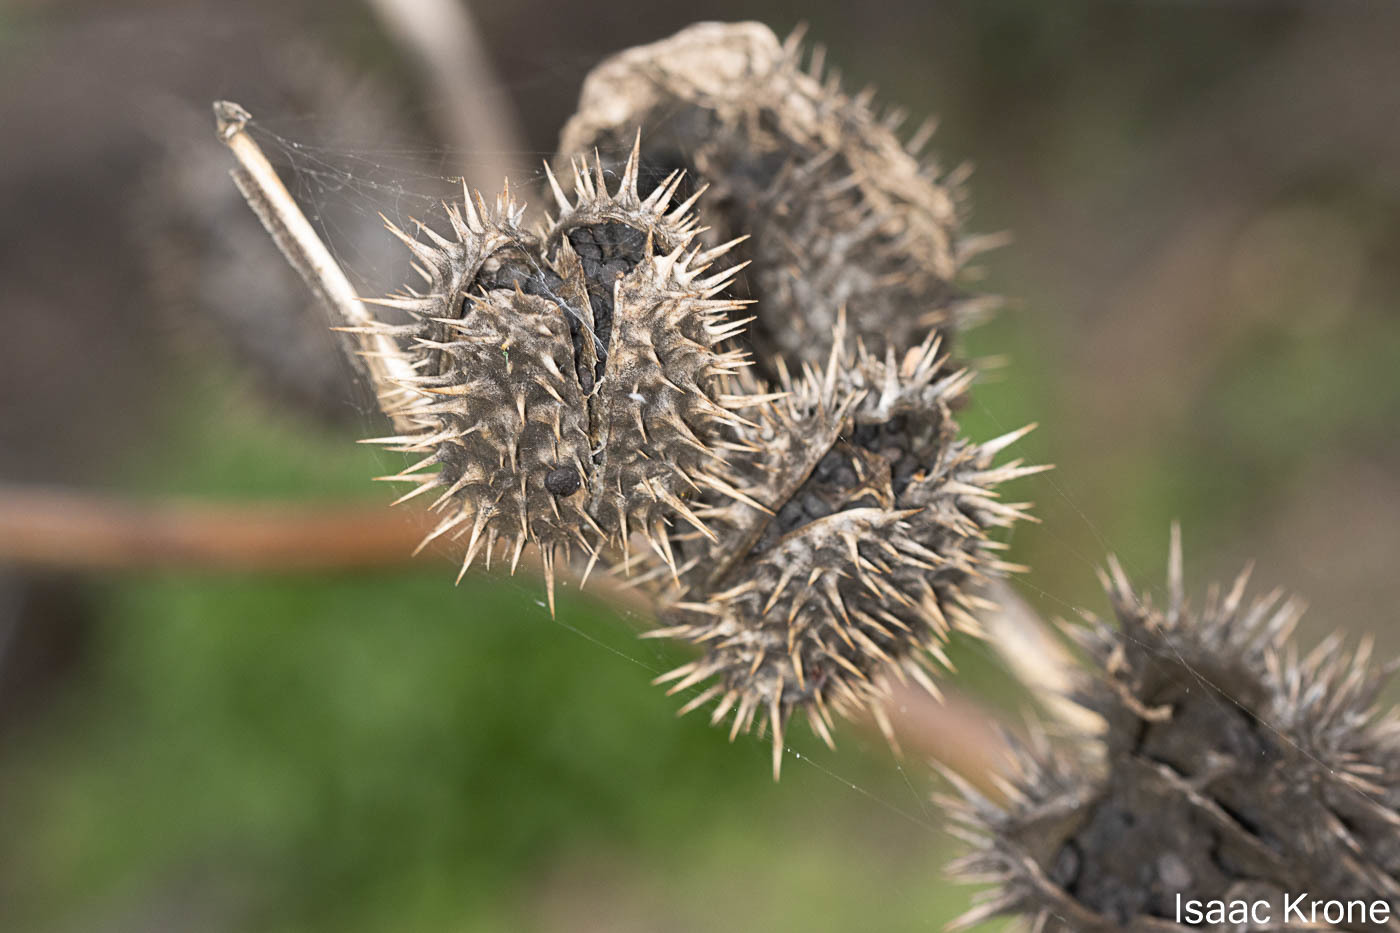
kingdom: Plantae
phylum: Tracheophyta
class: Magnoliopsida
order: Solanales
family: Solanaceae
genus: Datura
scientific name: Datura stramonium
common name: Thorn-apple
